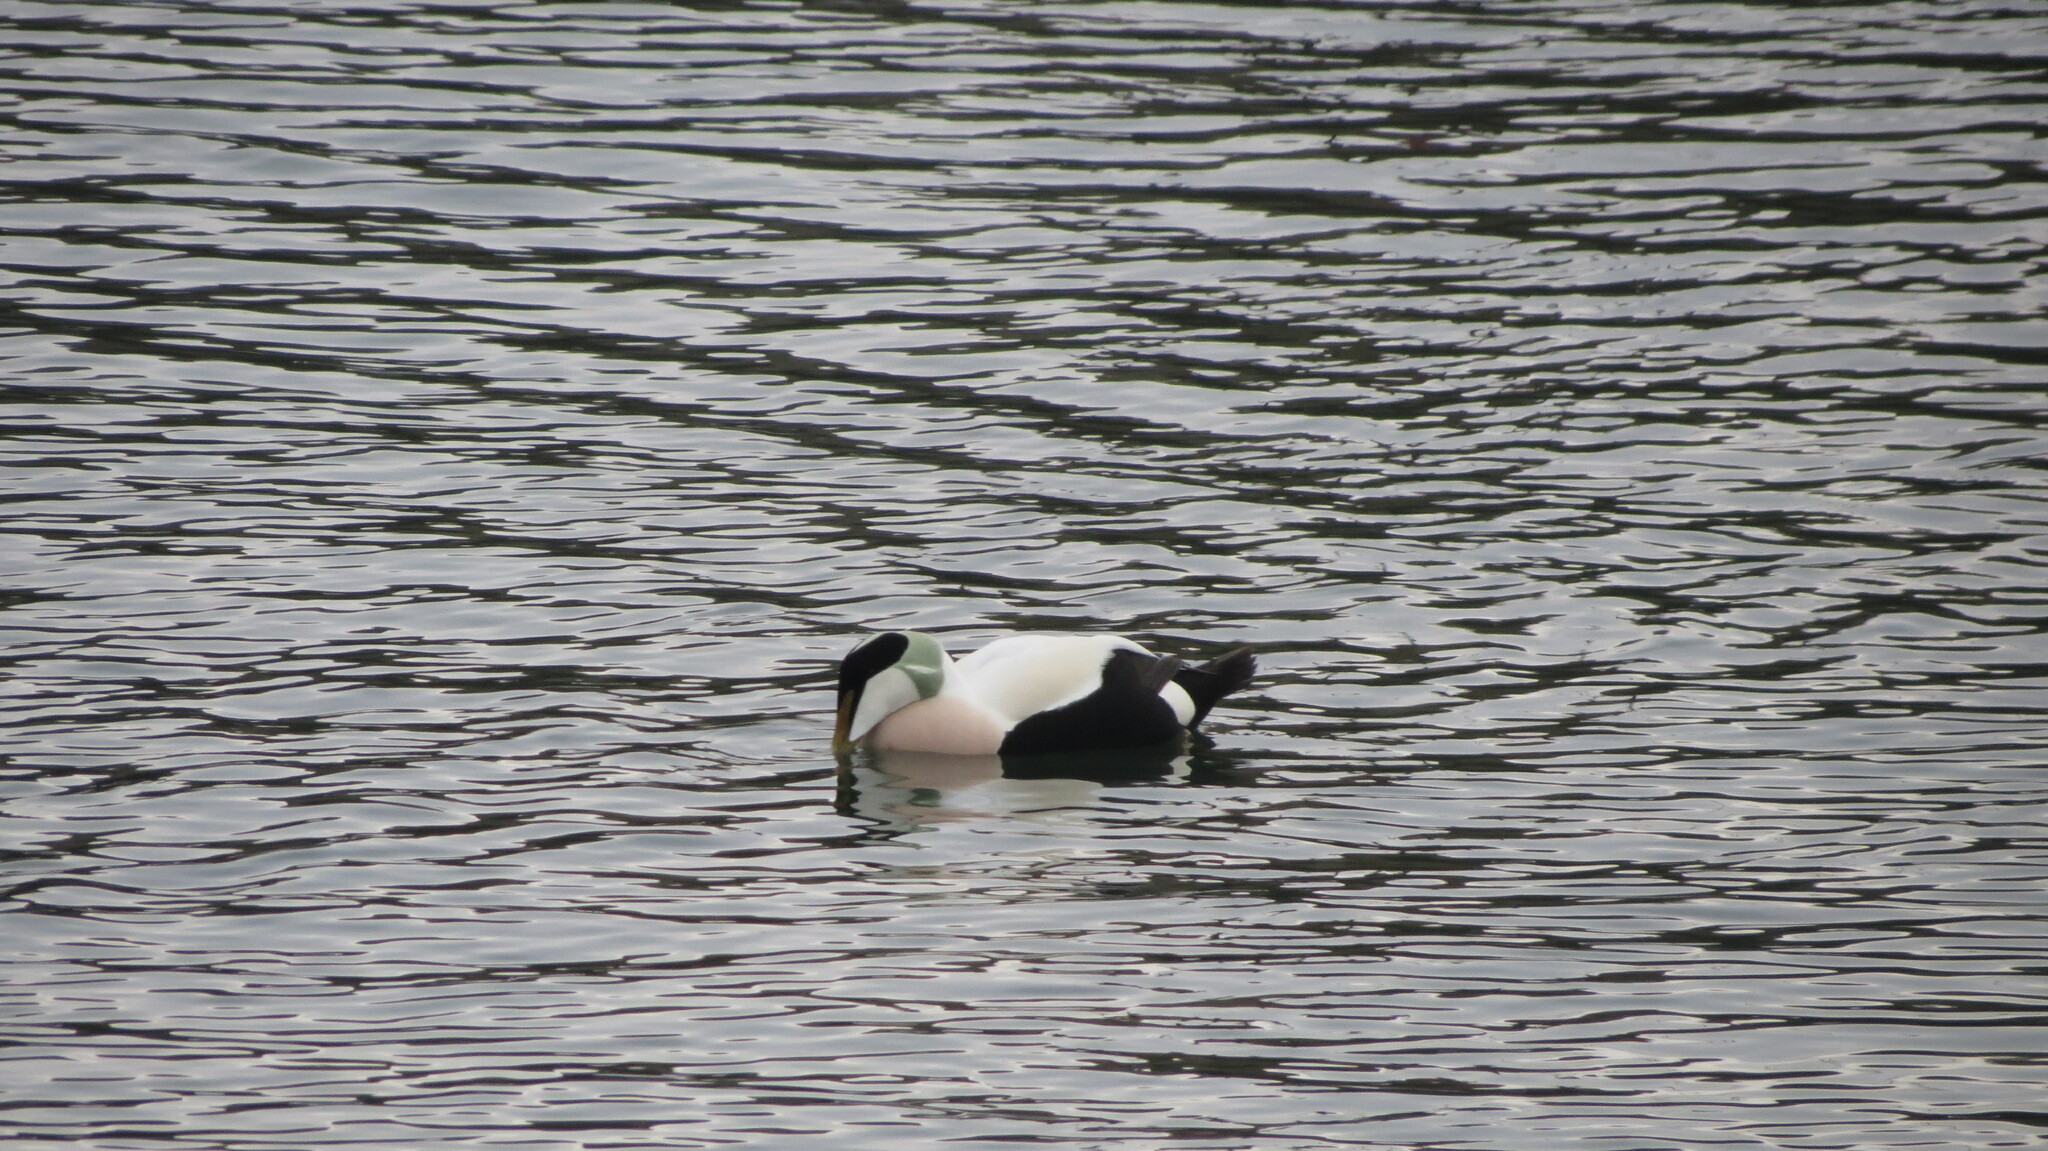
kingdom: Animalia
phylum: Chordata
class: Aves
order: Anseriformes
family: Anatidae
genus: Somateria
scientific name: Somateria mollissima
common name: Common eider
